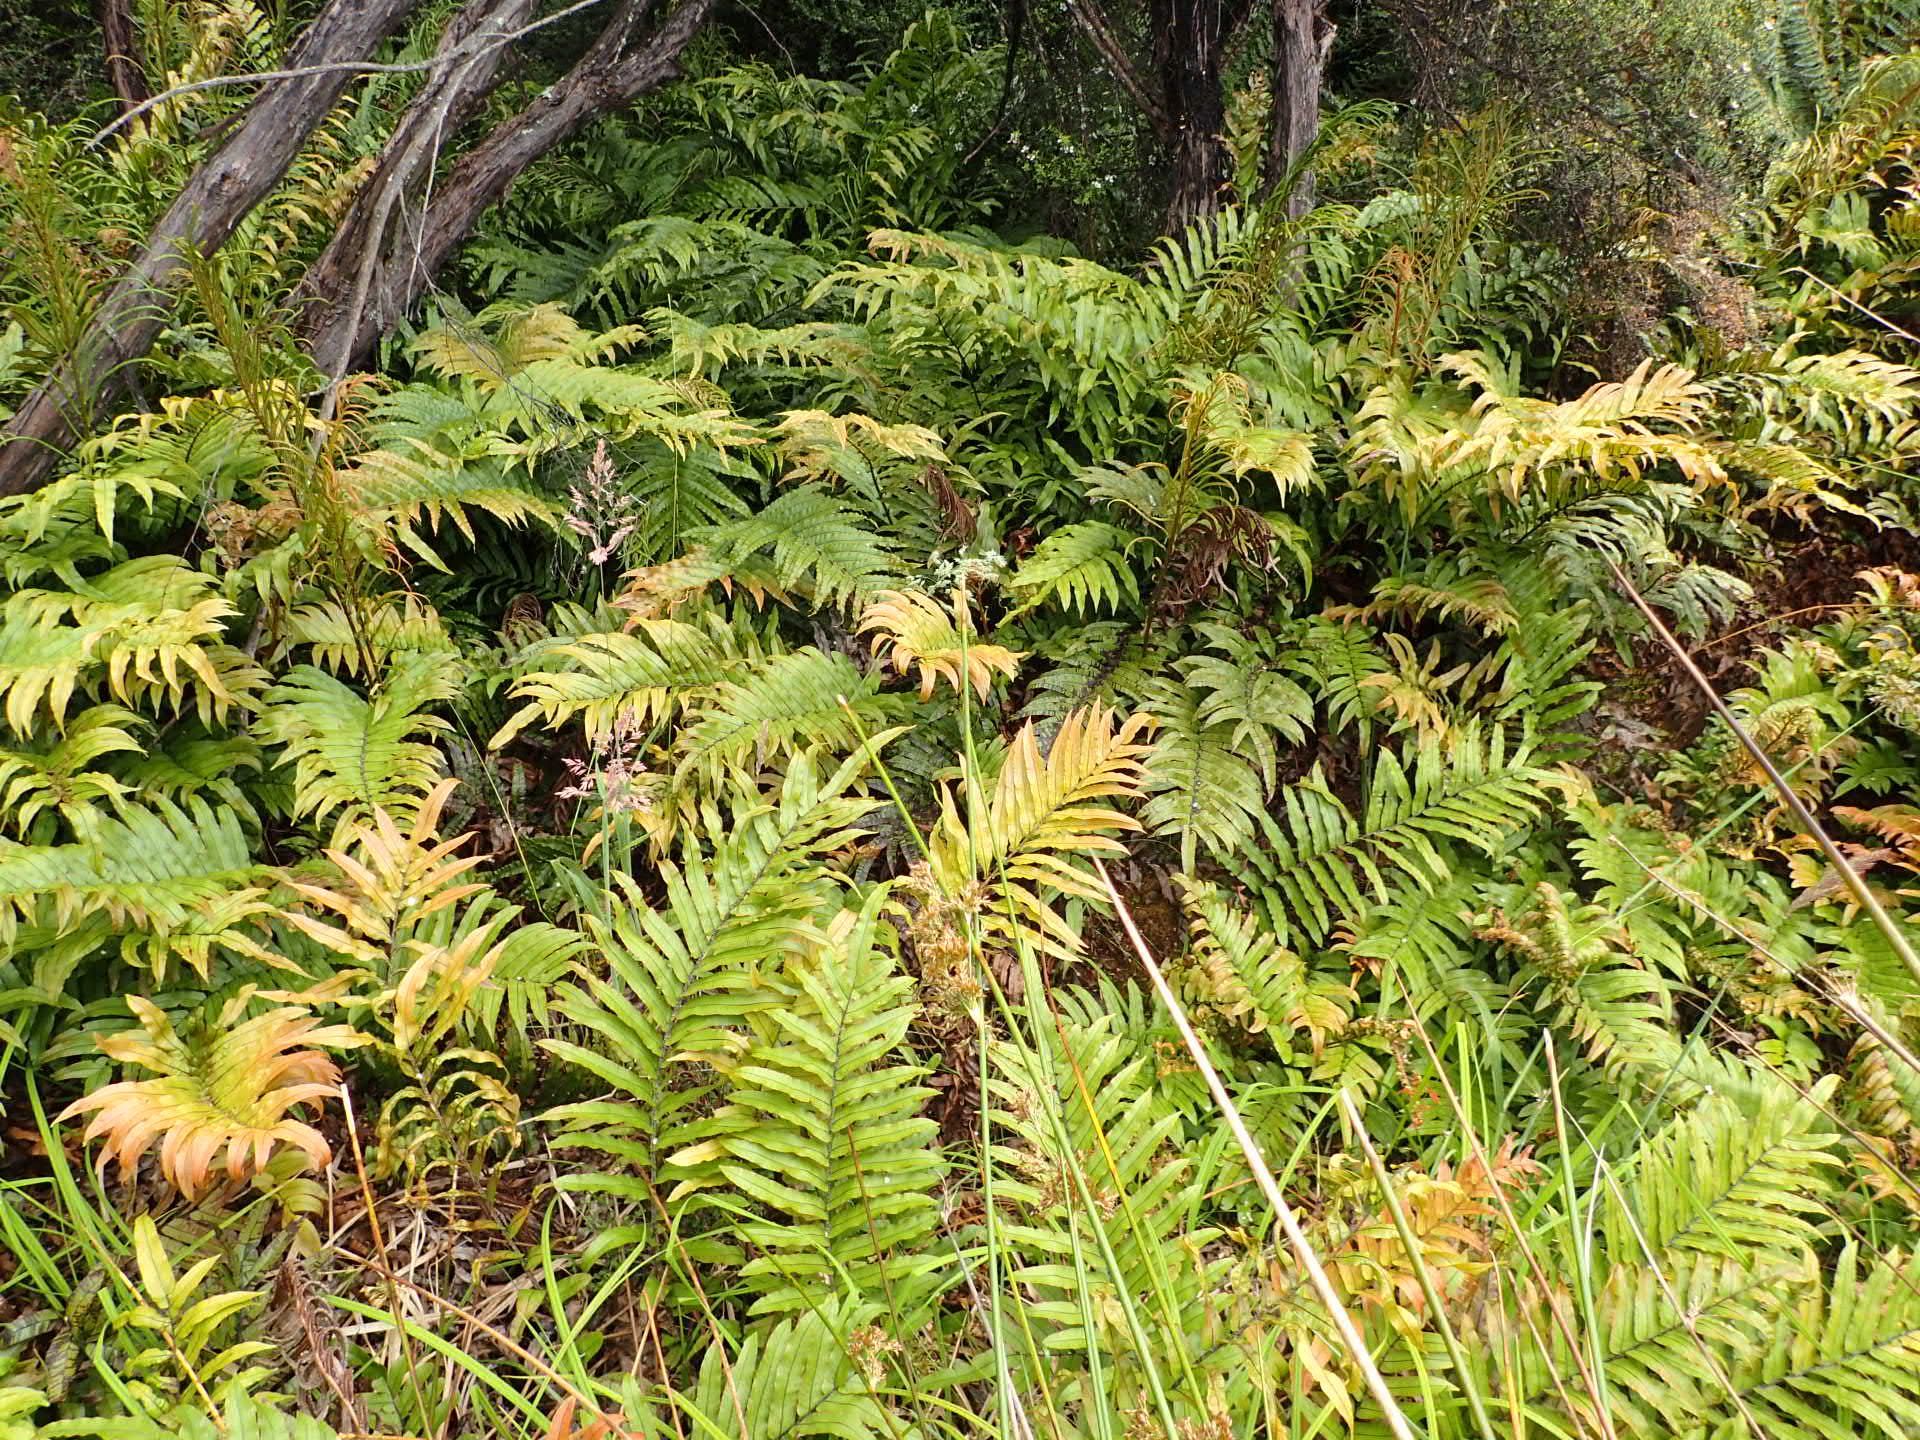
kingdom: Plantae
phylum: Tracheophyta
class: Polypodiopsida
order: Polypodiales
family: Blechnaceae
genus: Parablechnum
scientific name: Parablechnum novae-zelandiae
